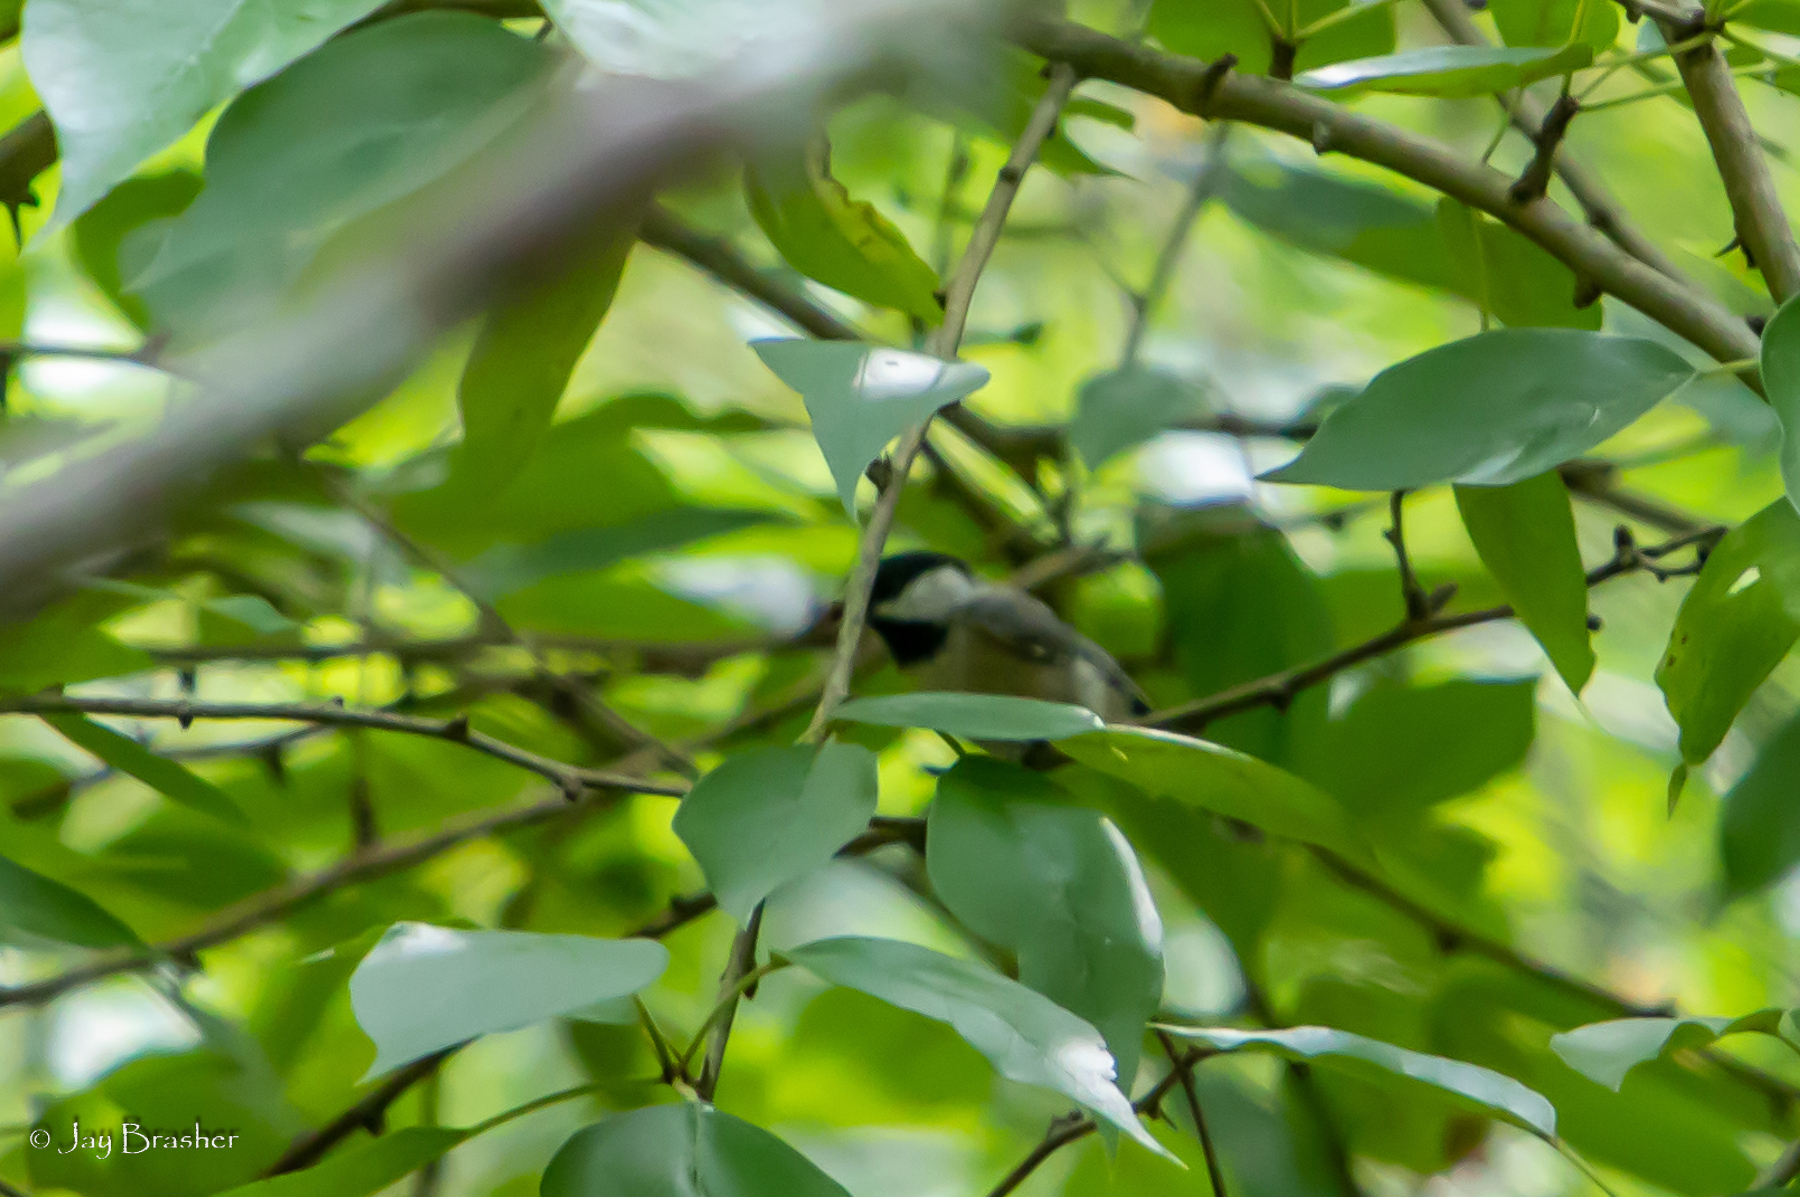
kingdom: Animalia
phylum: Chordata
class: Aves
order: Passeriformes
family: Paridae
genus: Poecile
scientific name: Poecile carolinensis
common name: Carolina chickadee
